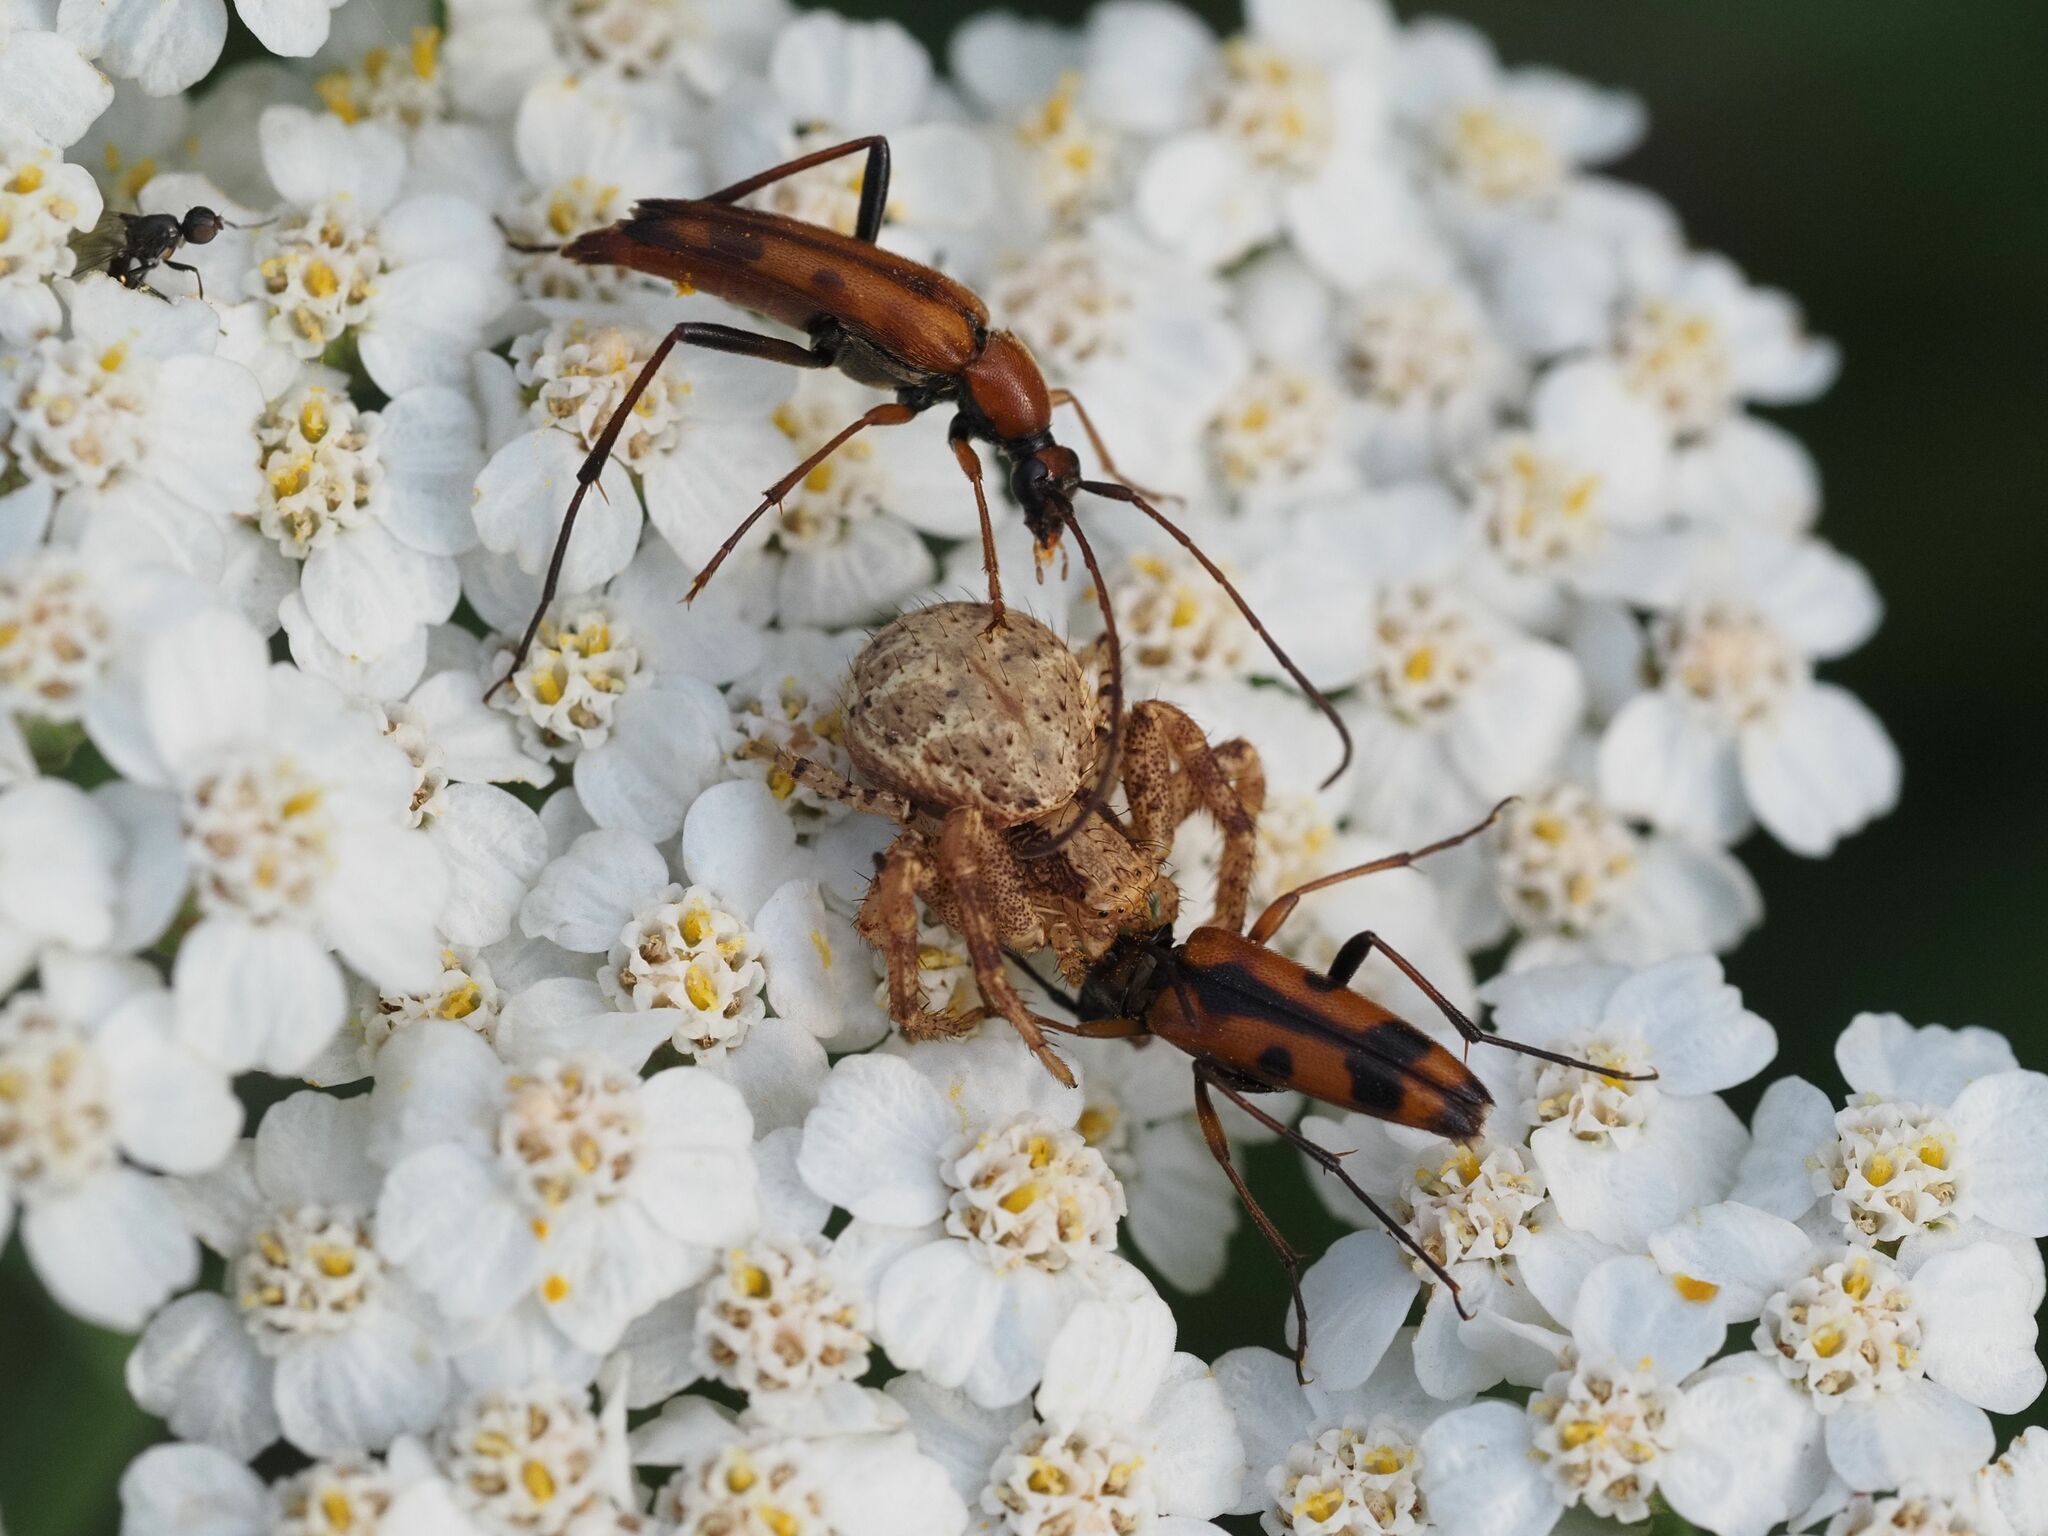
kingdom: Animalia
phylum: Arthropoda
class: Insecta
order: Coleoptera
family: Cerambycidae
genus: Stenurella
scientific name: Stenurella septempunctata
